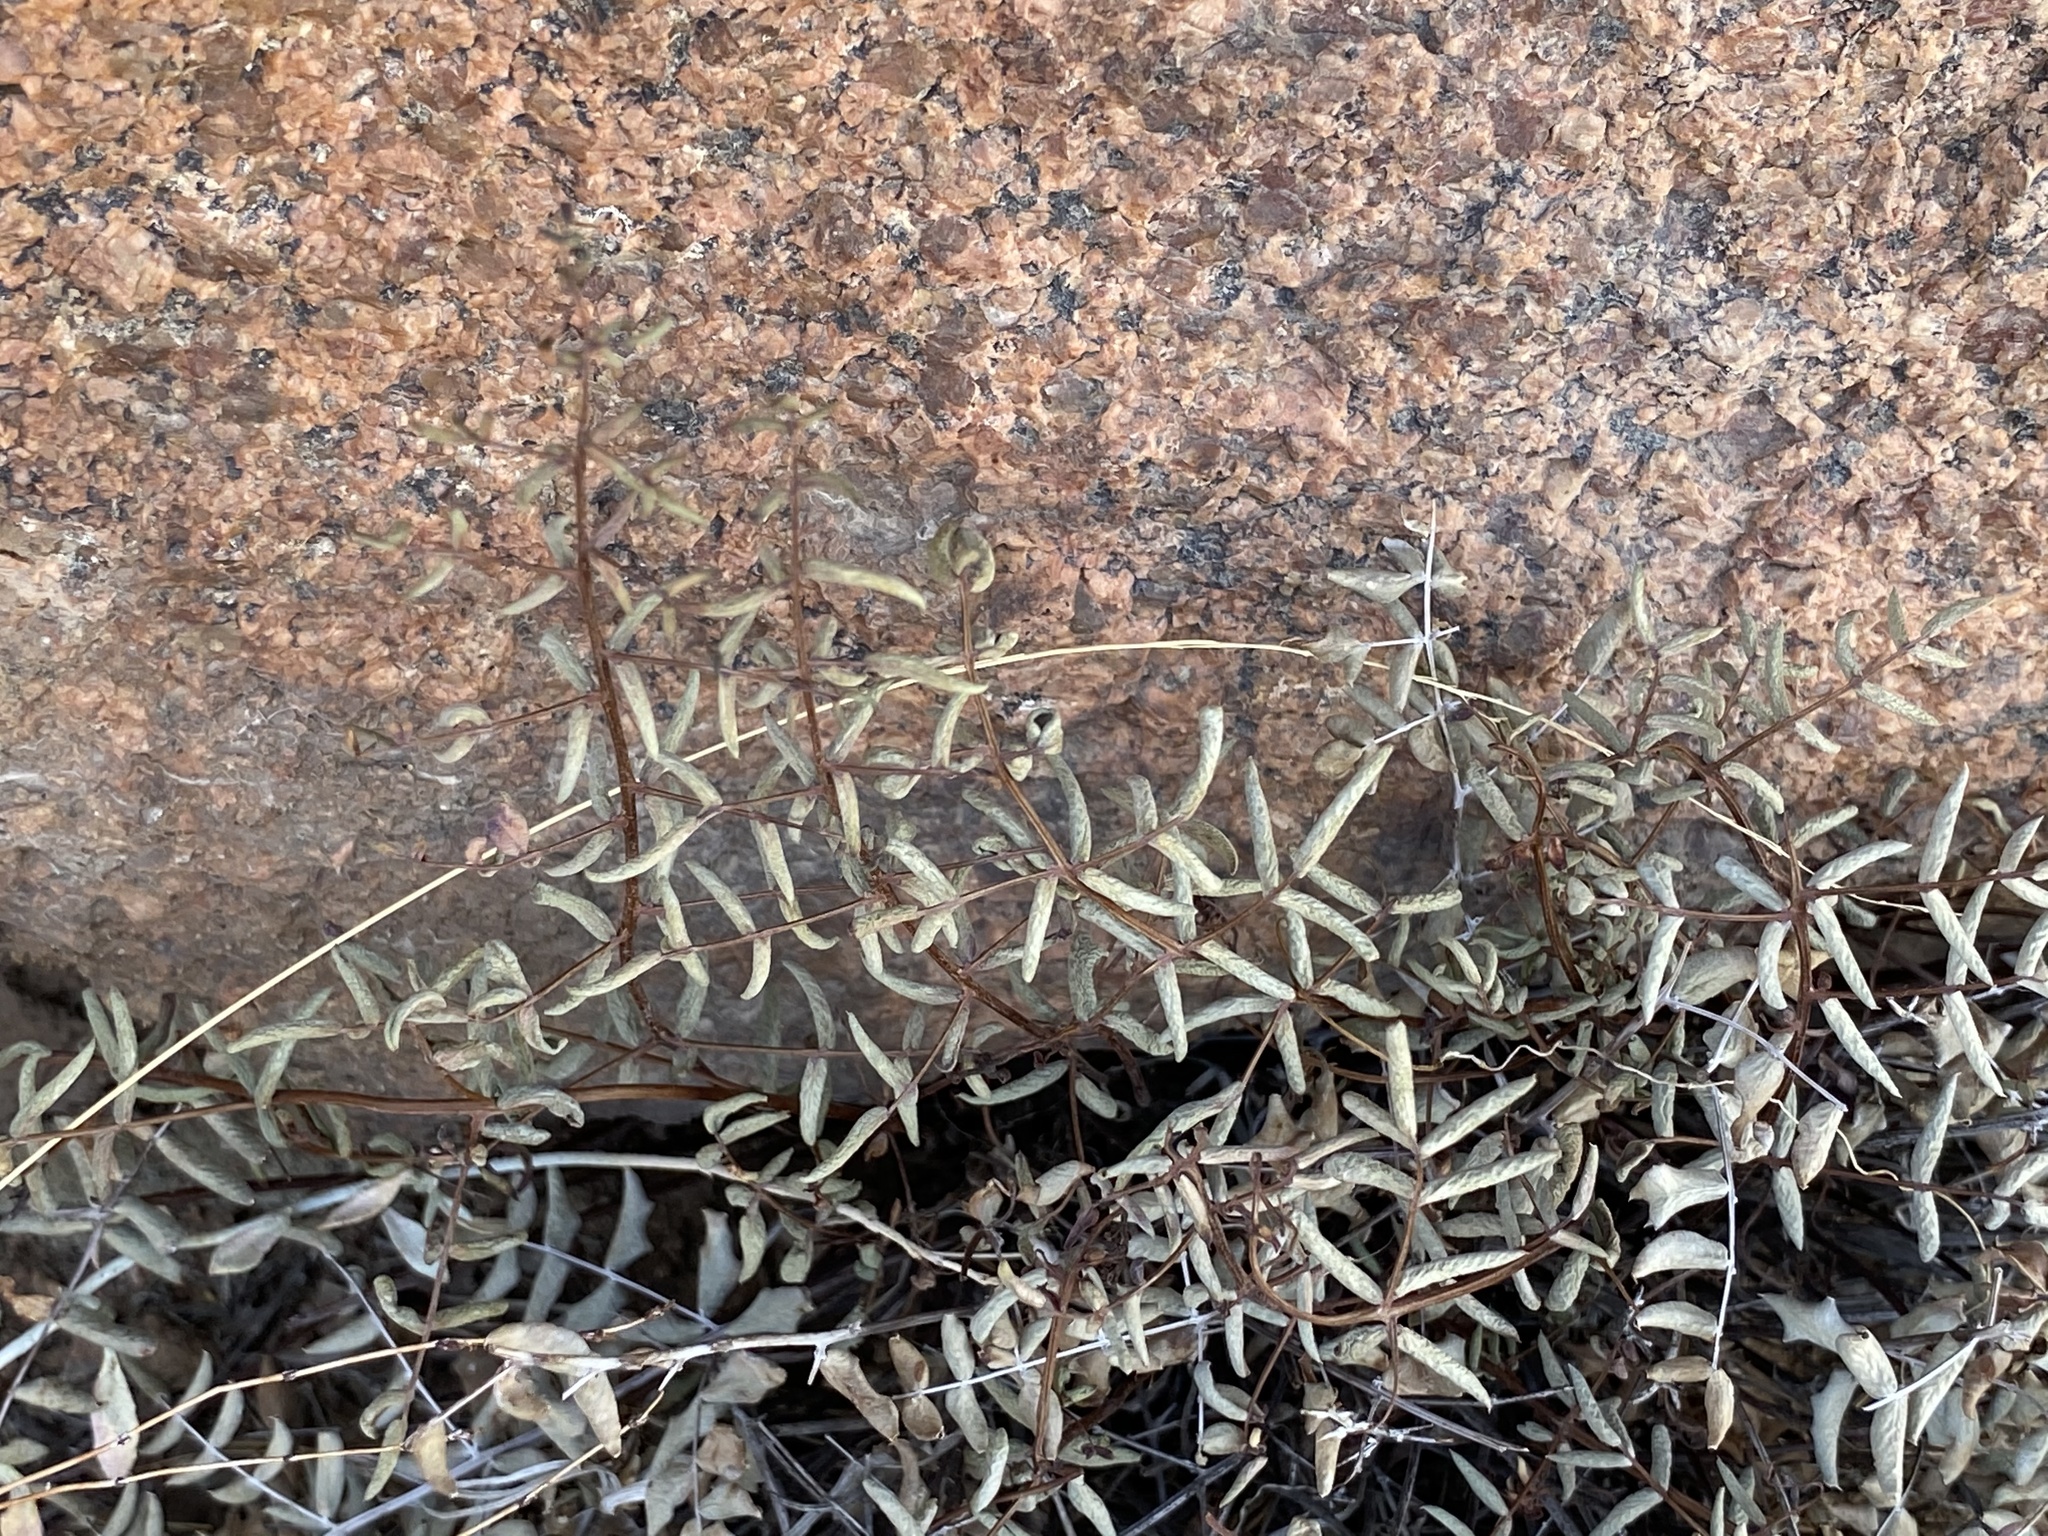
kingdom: Plantae
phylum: Tracheophyta
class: Polypodiopsida
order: Polypodiales
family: Pteridaceae
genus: Pellaea
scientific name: Pellaea truncata
